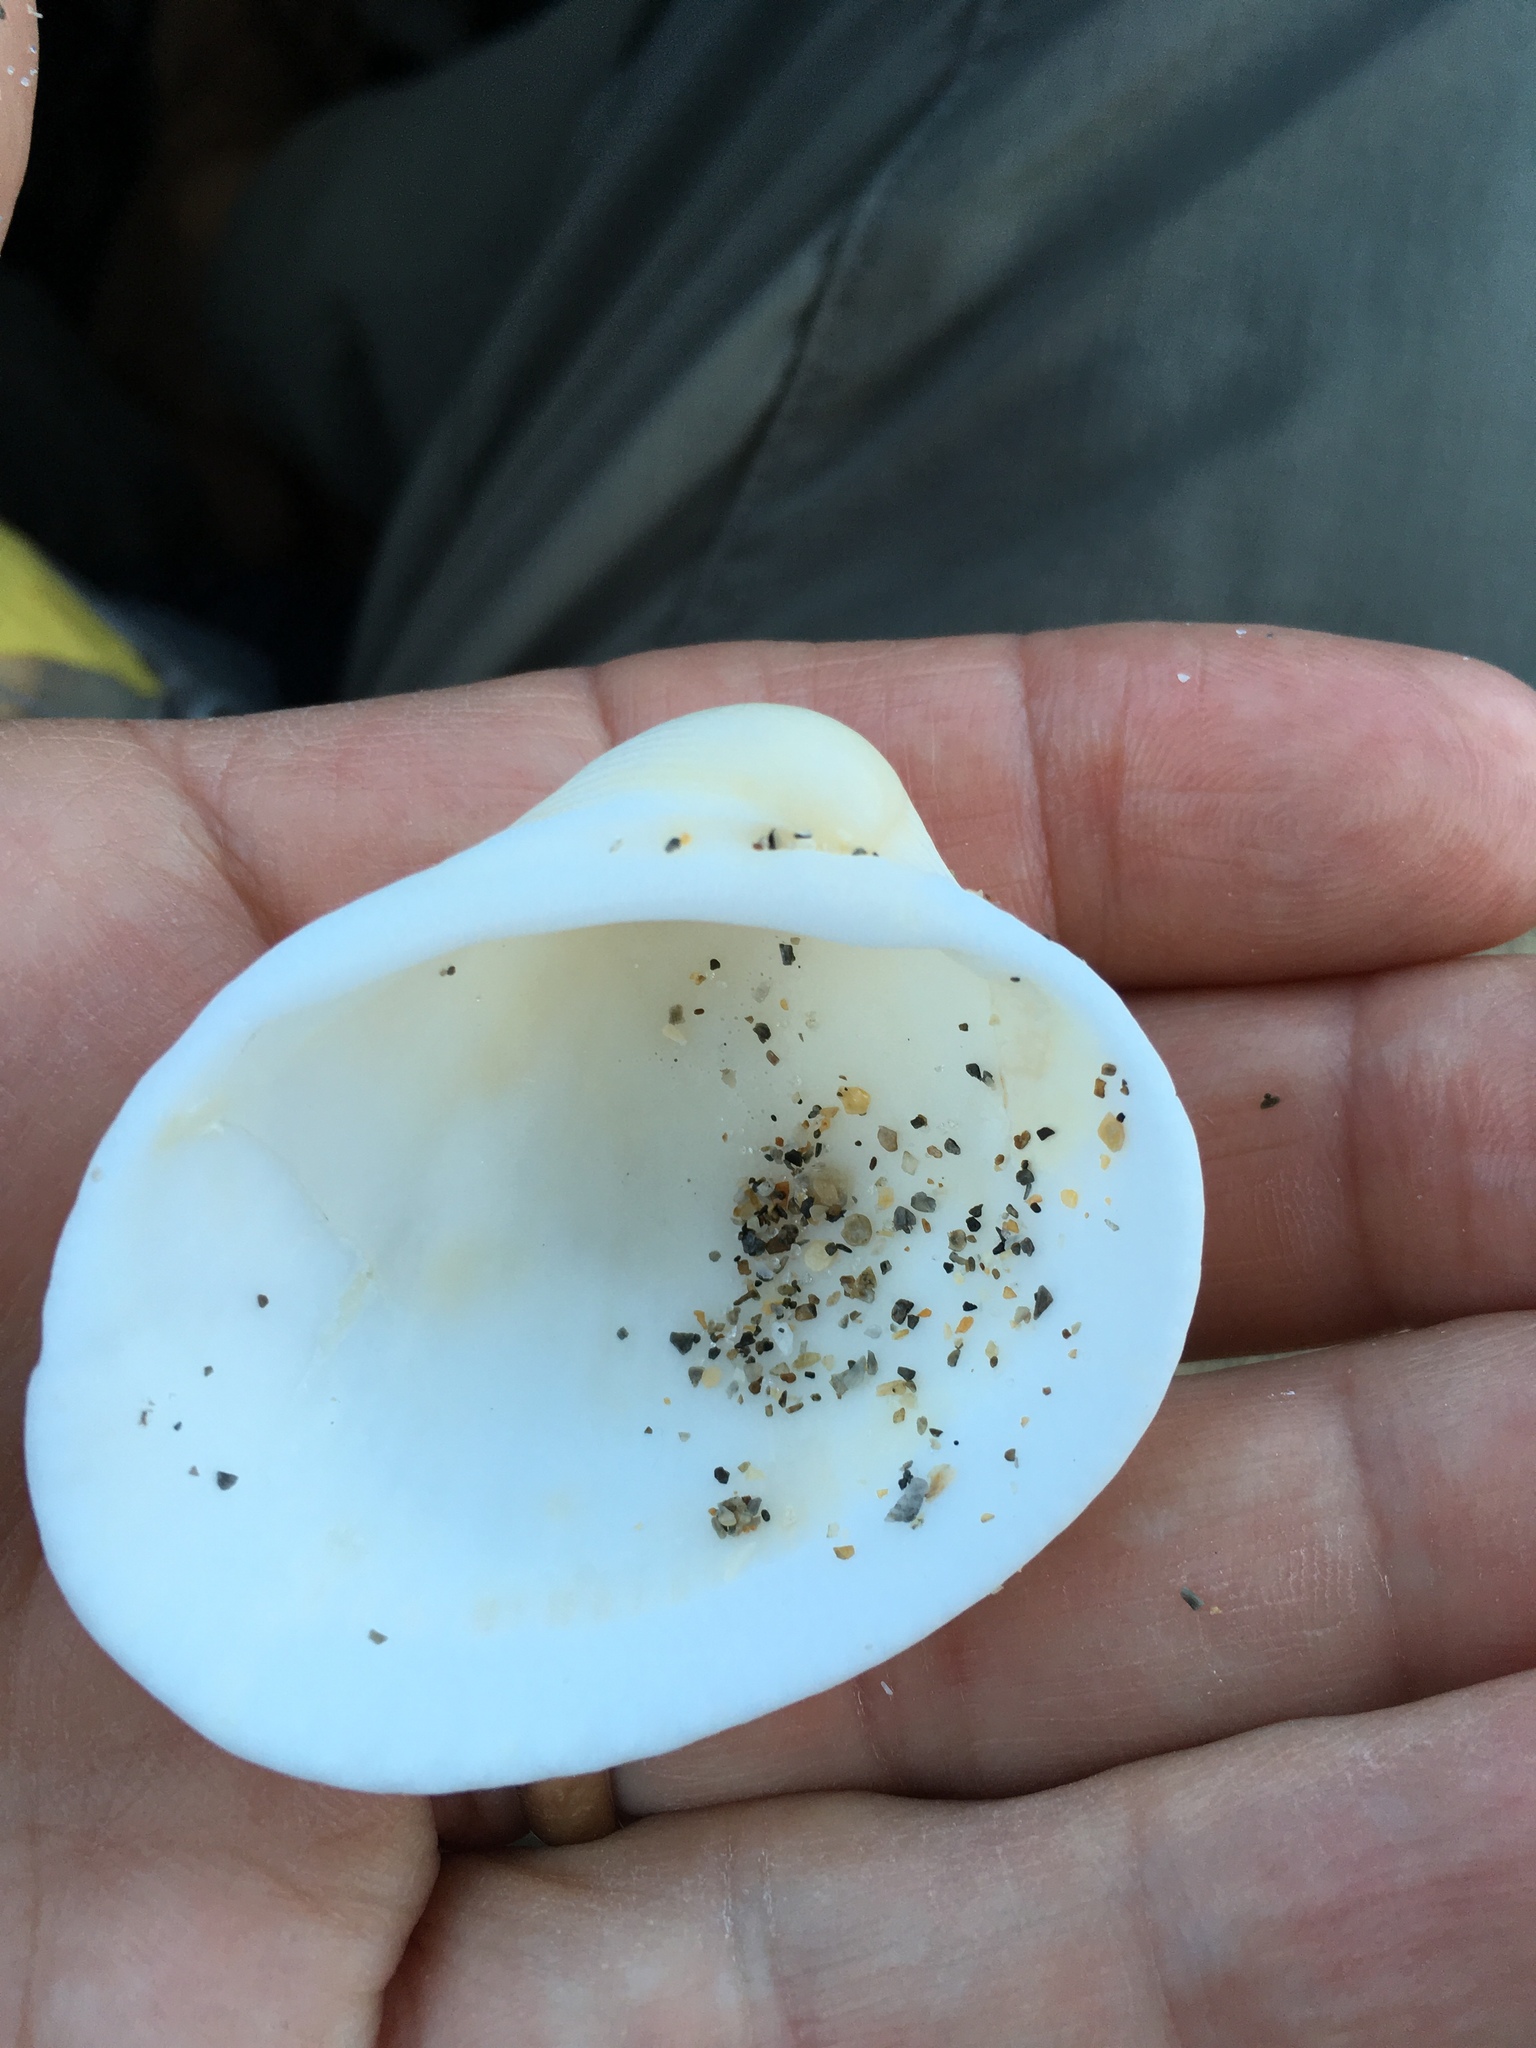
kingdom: Animalia
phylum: Mollusca
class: Bivalvia
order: Arcida
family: Arcidae
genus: Lunarca
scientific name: Lunarca ovalis
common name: Blood ark
